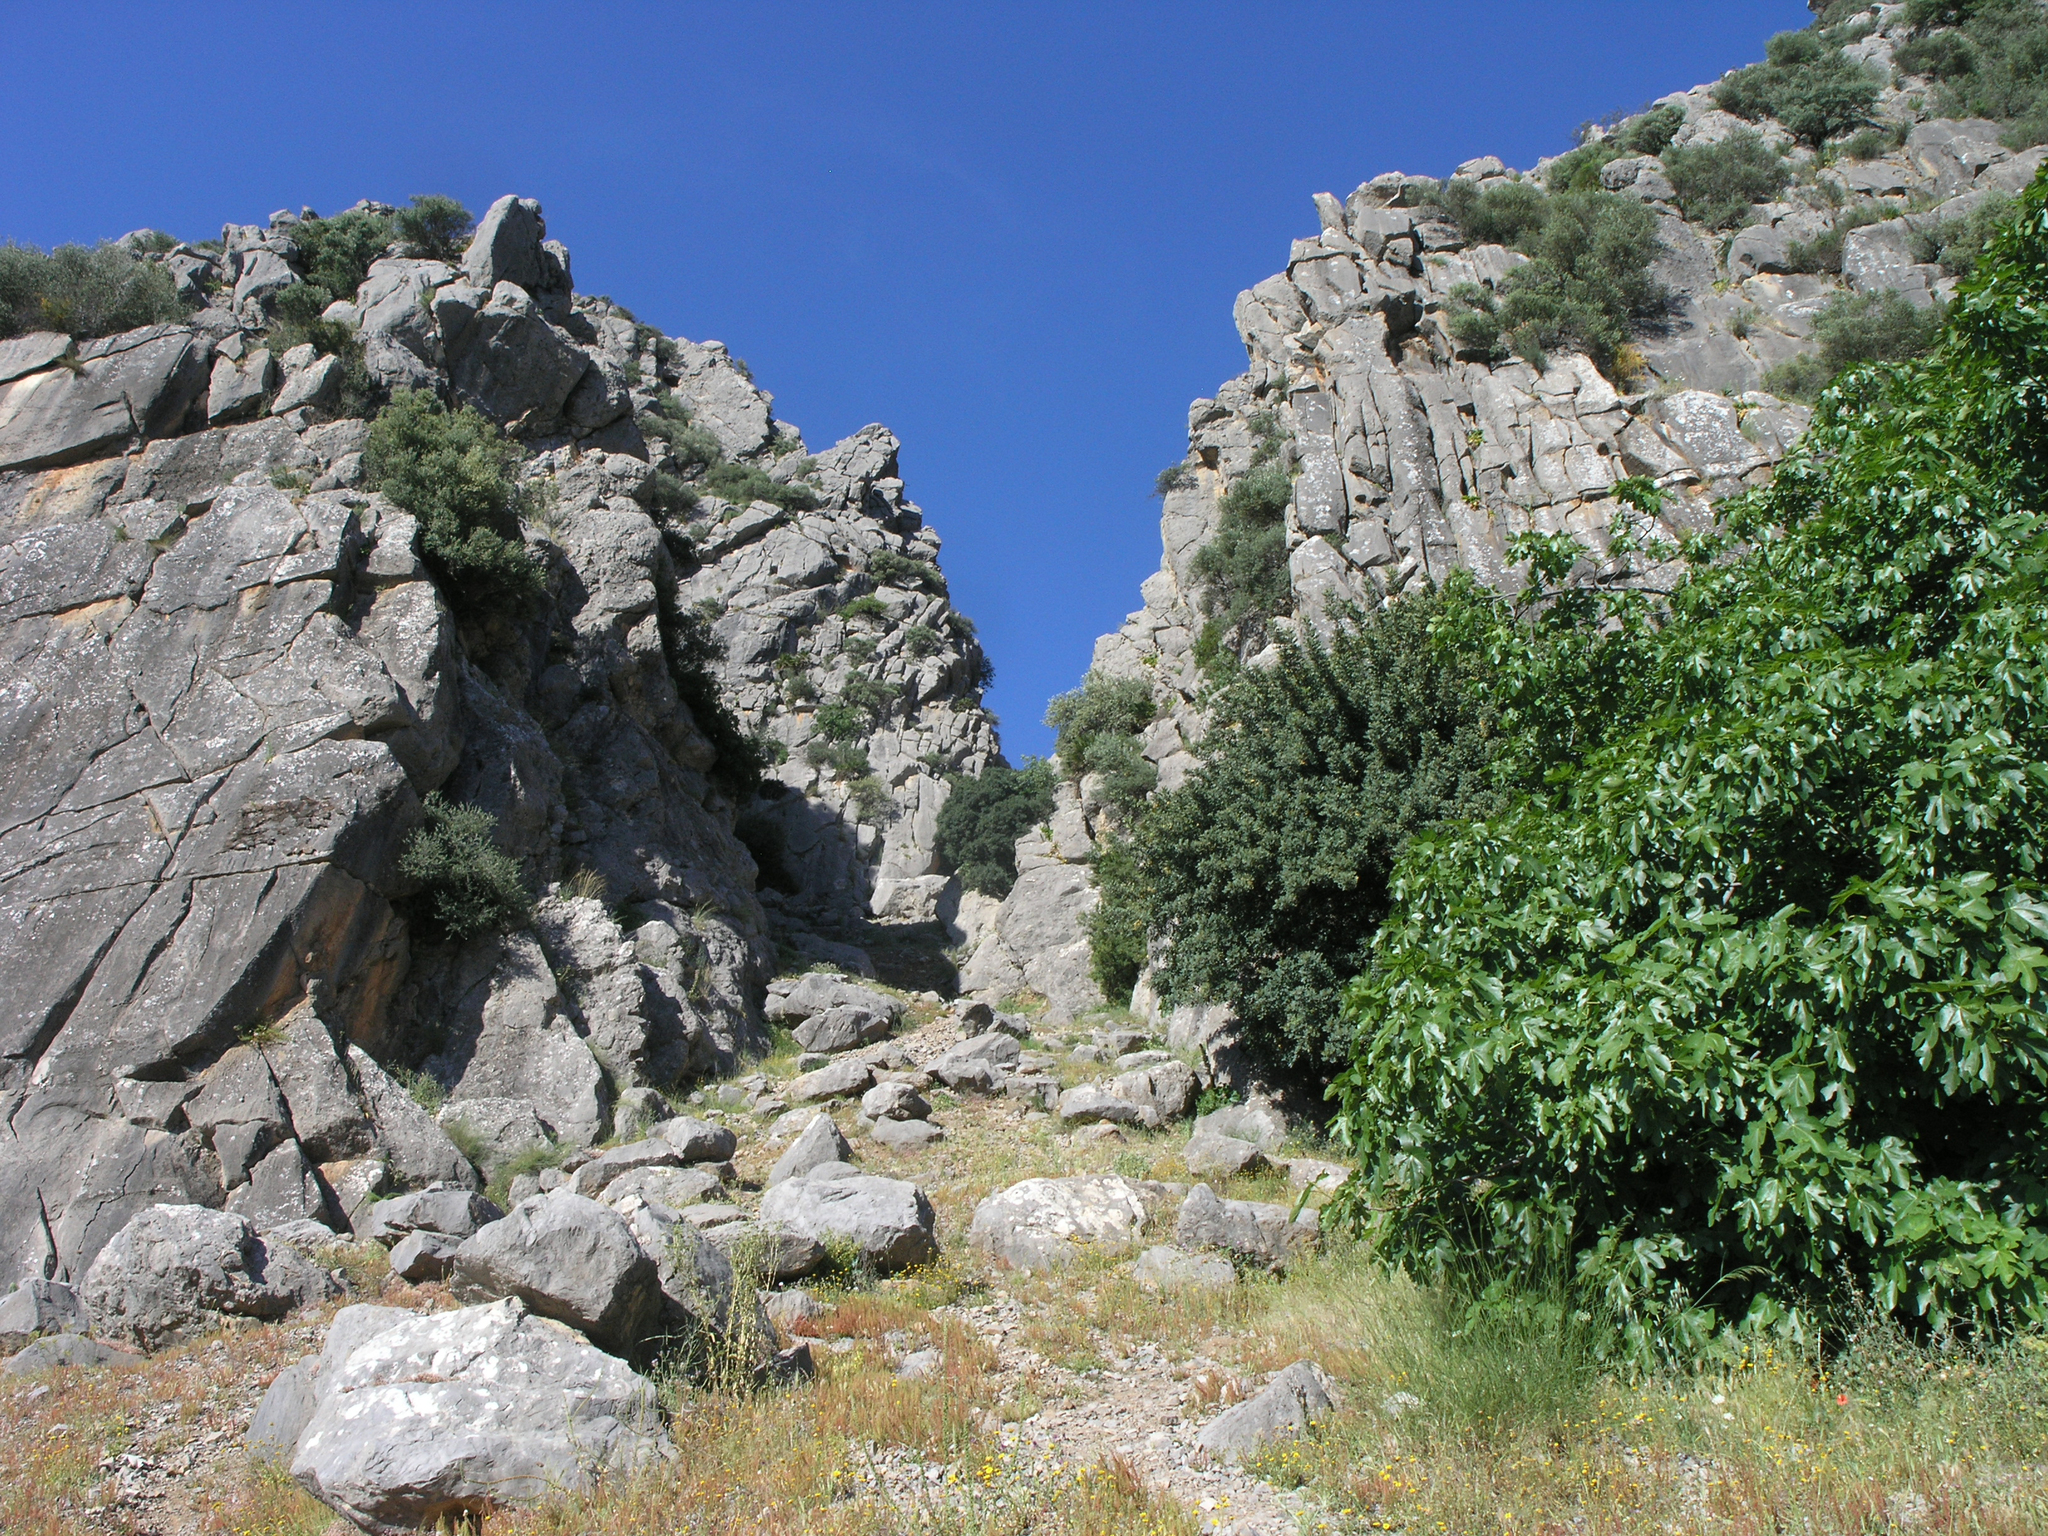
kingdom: Plantae
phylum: Tracheophyta
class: Magnoliopsida
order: Rosales
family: Moraceae
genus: Ficus
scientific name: Ficus carica
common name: Fig
